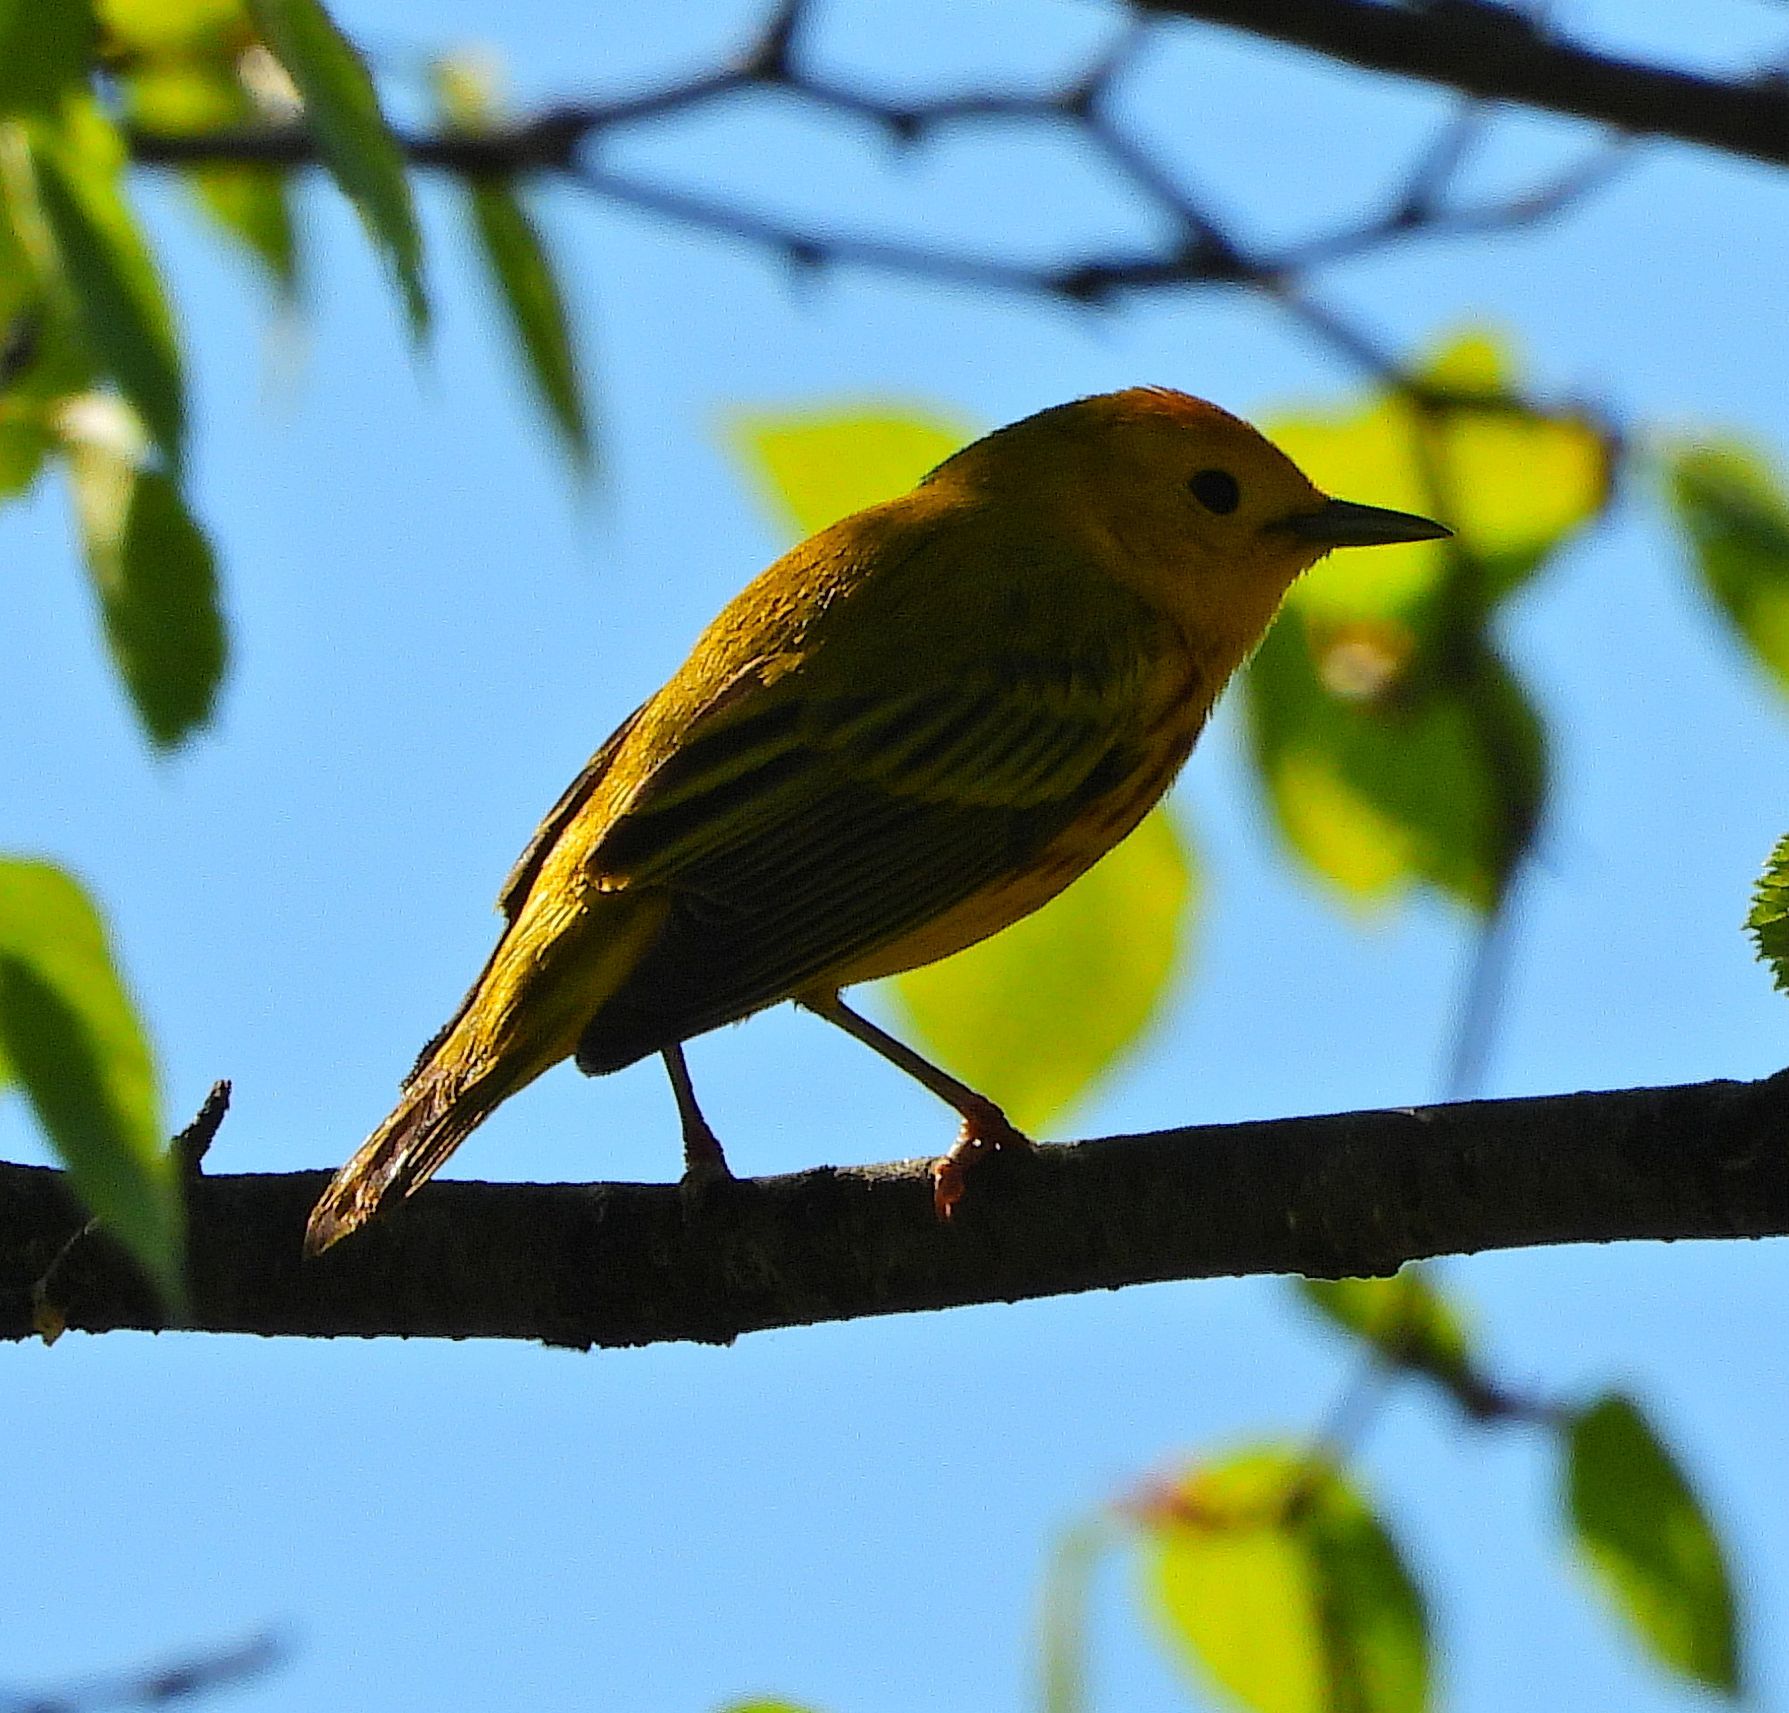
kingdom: Animalia
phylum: Chordata
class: Aves
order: Passeriformes
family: Parulidae
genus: Setophaga
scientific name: Setophaga petechia
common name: Yellow warbler
